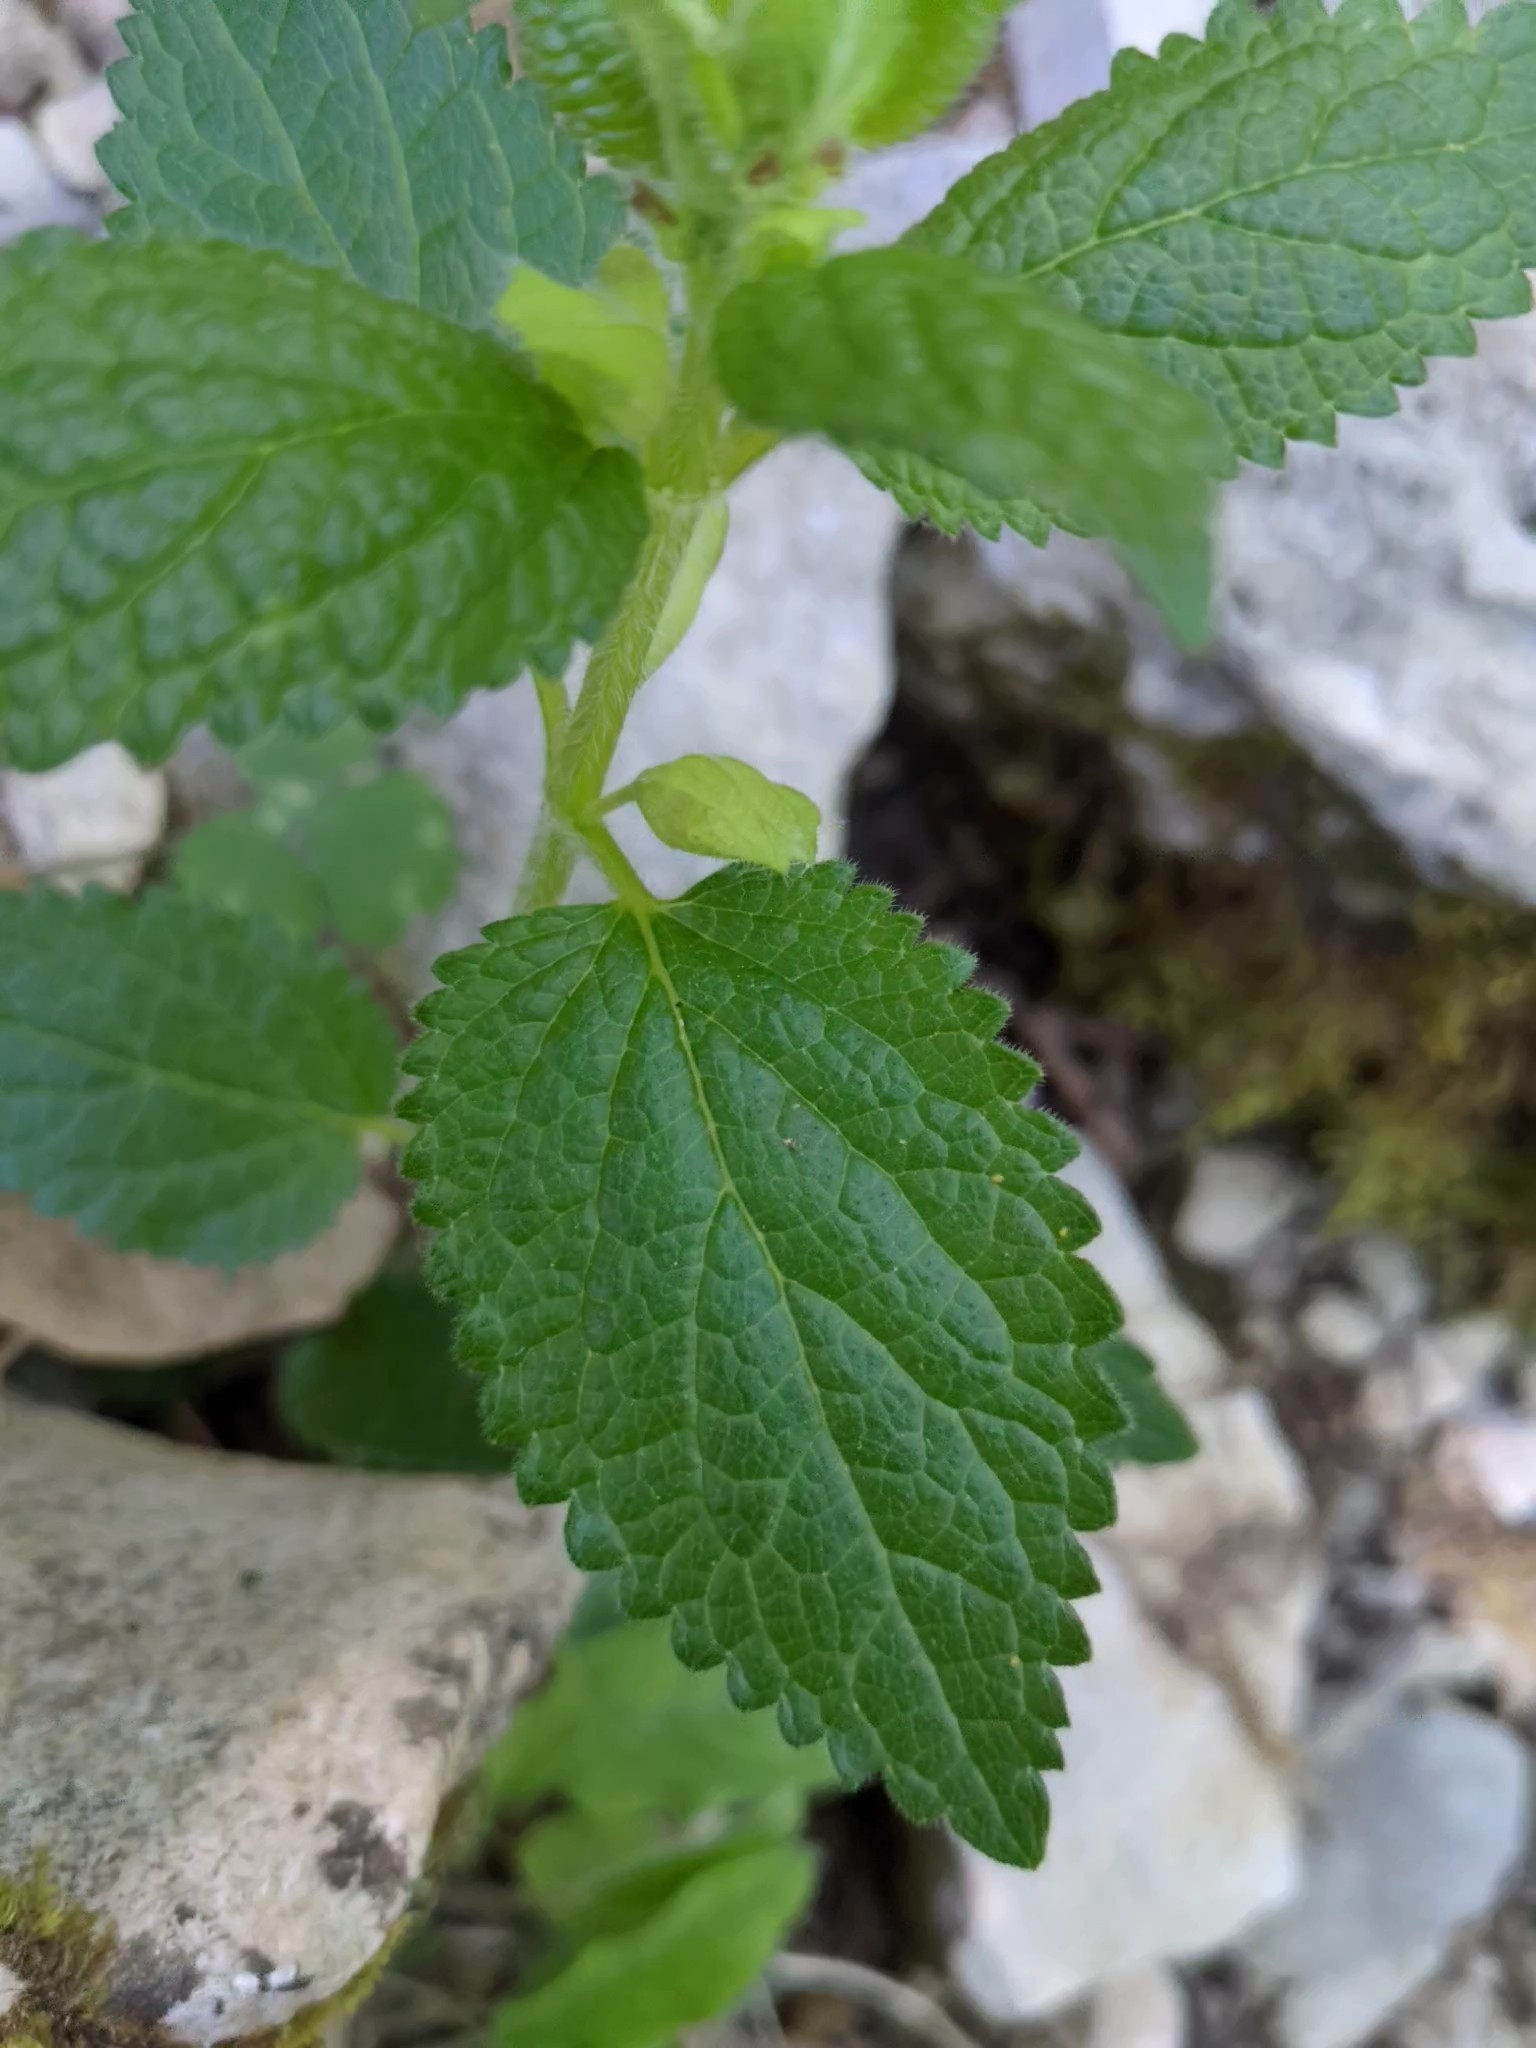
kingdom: Plantae
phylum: Tracheophyta
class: Magnoliopsida
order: Lamiales
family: Lamiaceae
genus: Melittis
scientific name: Melittis melissophyllum
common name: Bastard balm
